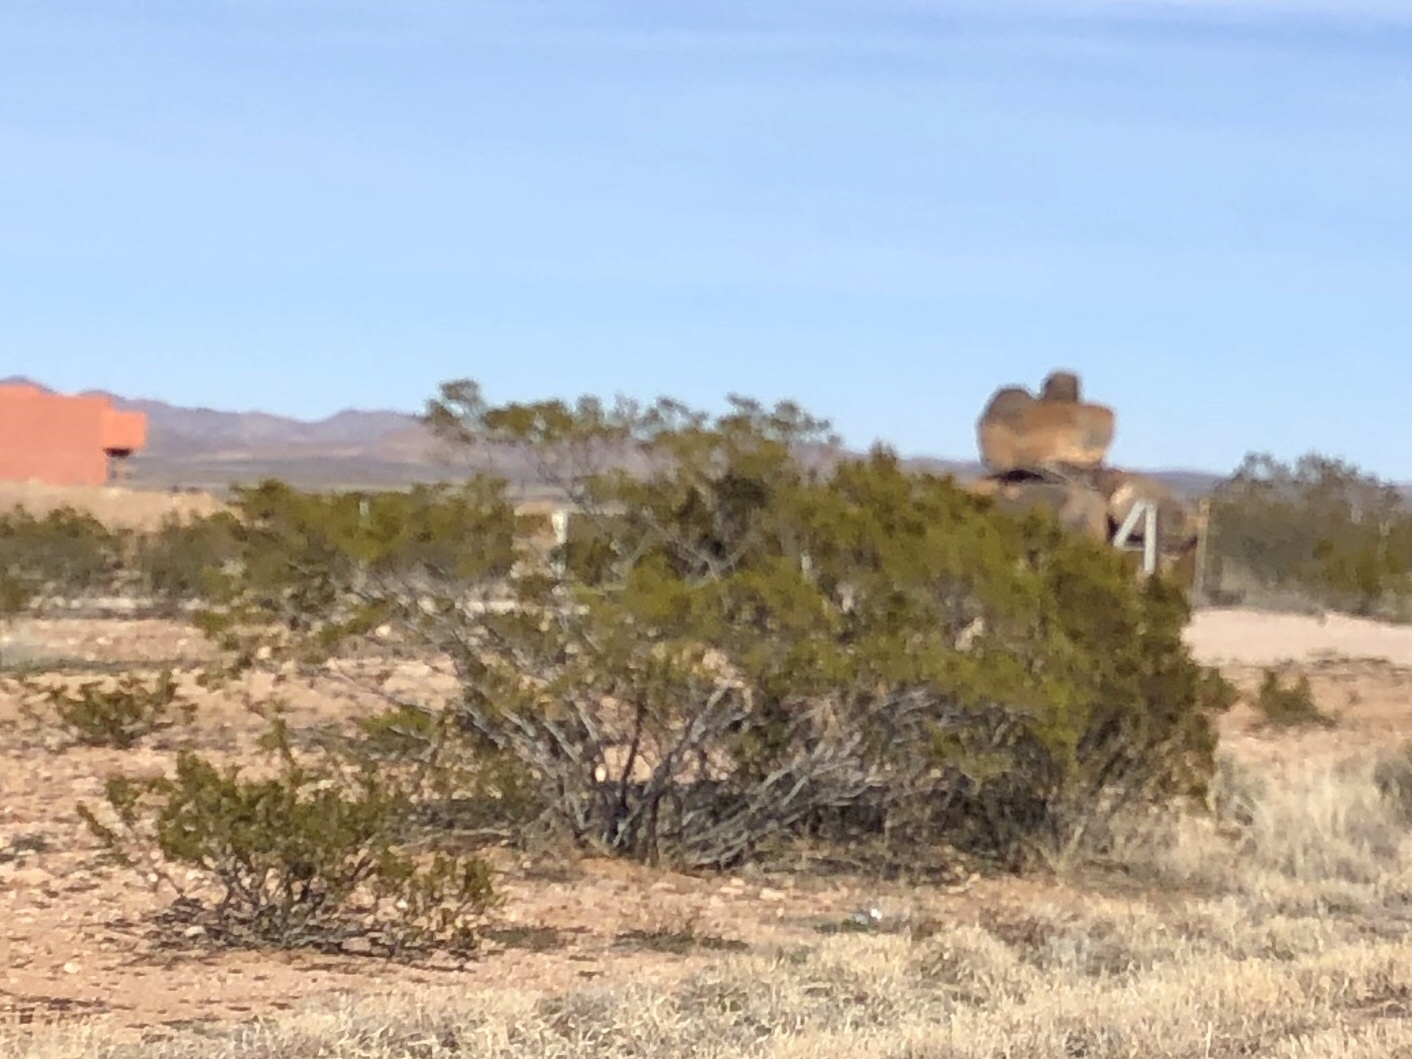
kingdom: Plantae
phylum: Tracheophyta
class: Magnoliopsida
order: Zygophyllales
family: Zygophyllaceae
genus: Larrea
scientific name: Larrea tridentata
